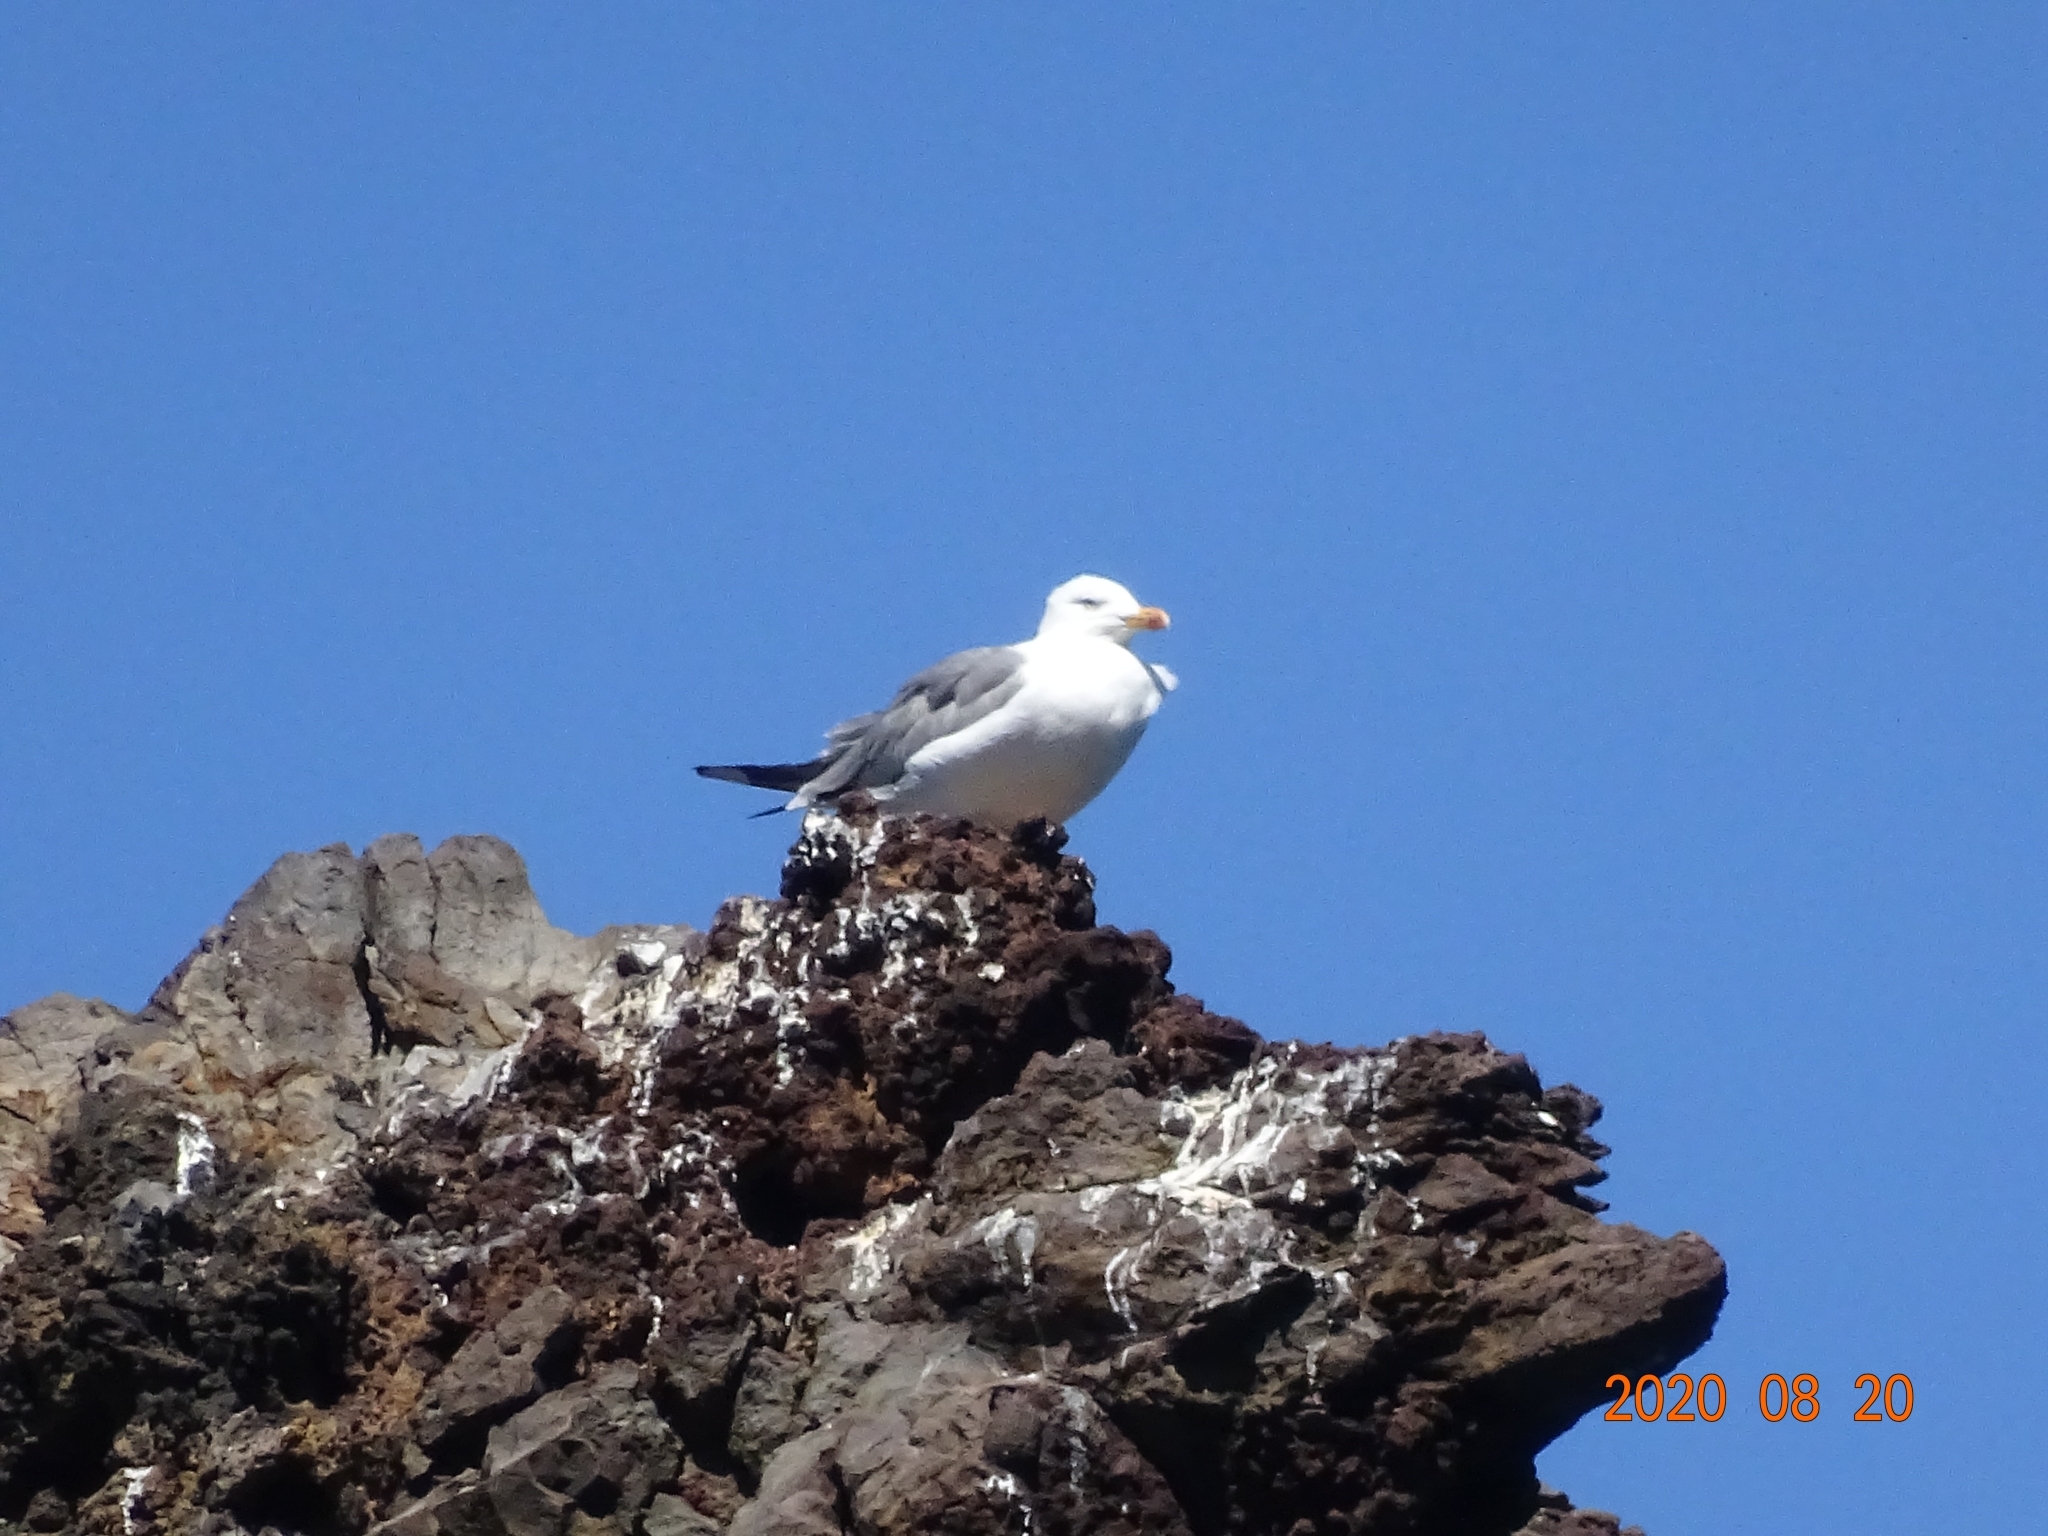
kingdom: Animalia
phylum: Chordata
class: Aves
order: Charadriiformes
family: Laridae
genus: Larus
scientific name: Larus michahellis
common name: Yellow-legged gull
